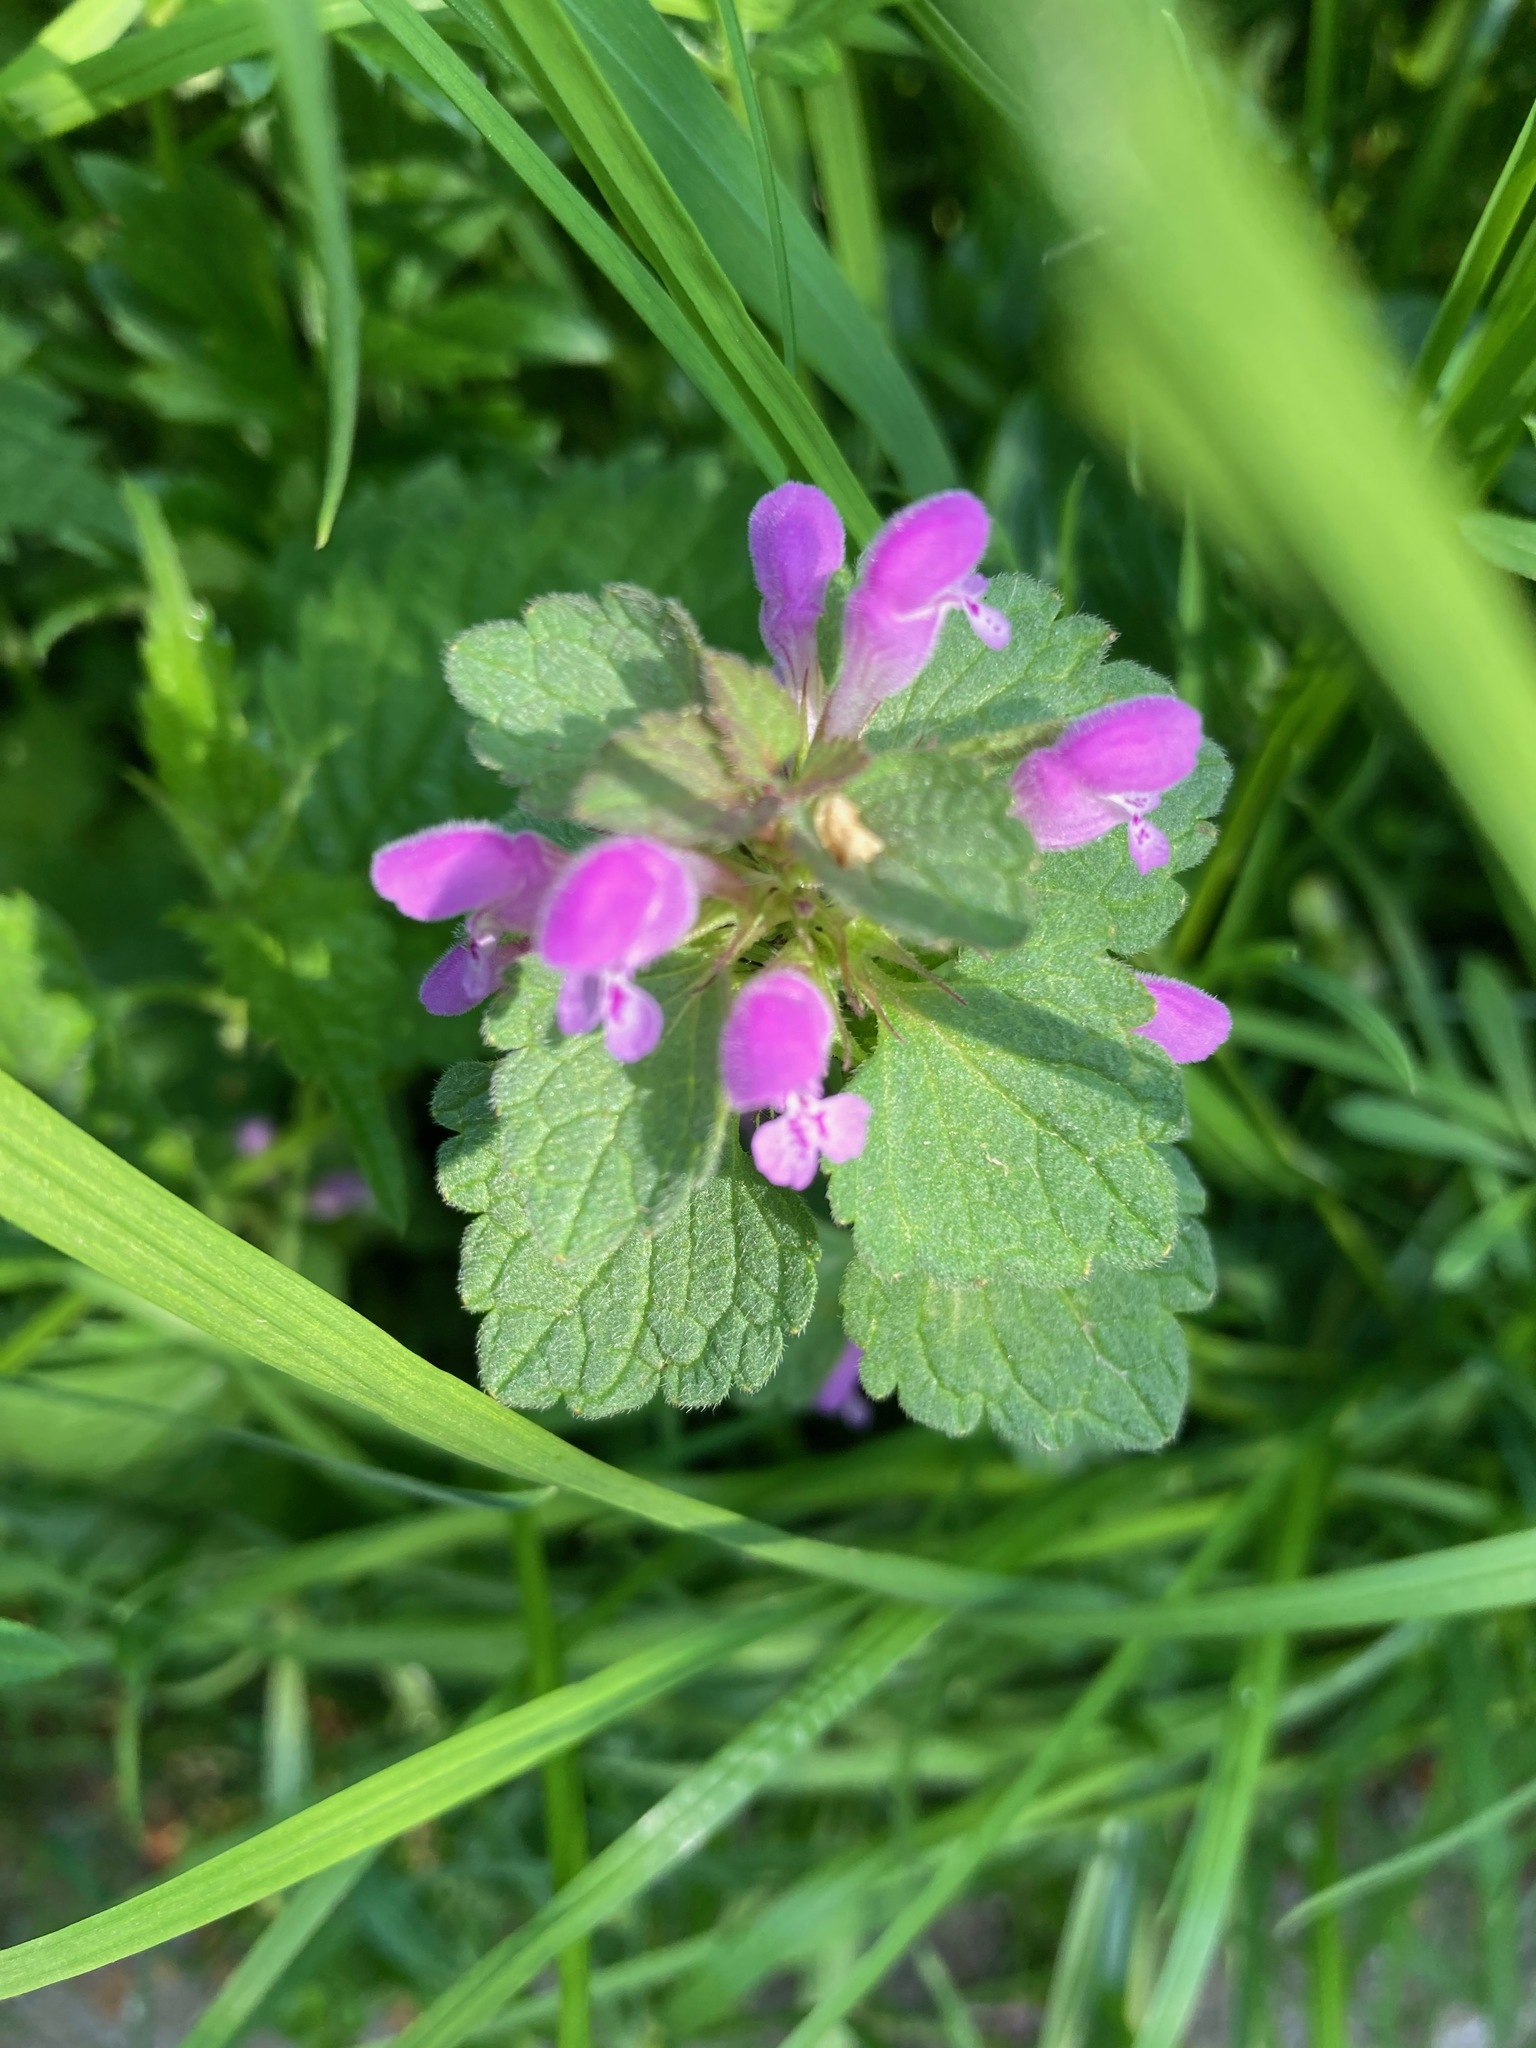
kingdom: Plantae
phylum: Tracheophyta
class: Magnoliopsida
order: Lamiales
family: Lamiaceae
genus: Lamium
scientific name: Lamium purpureum
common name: Red dead-nettle
